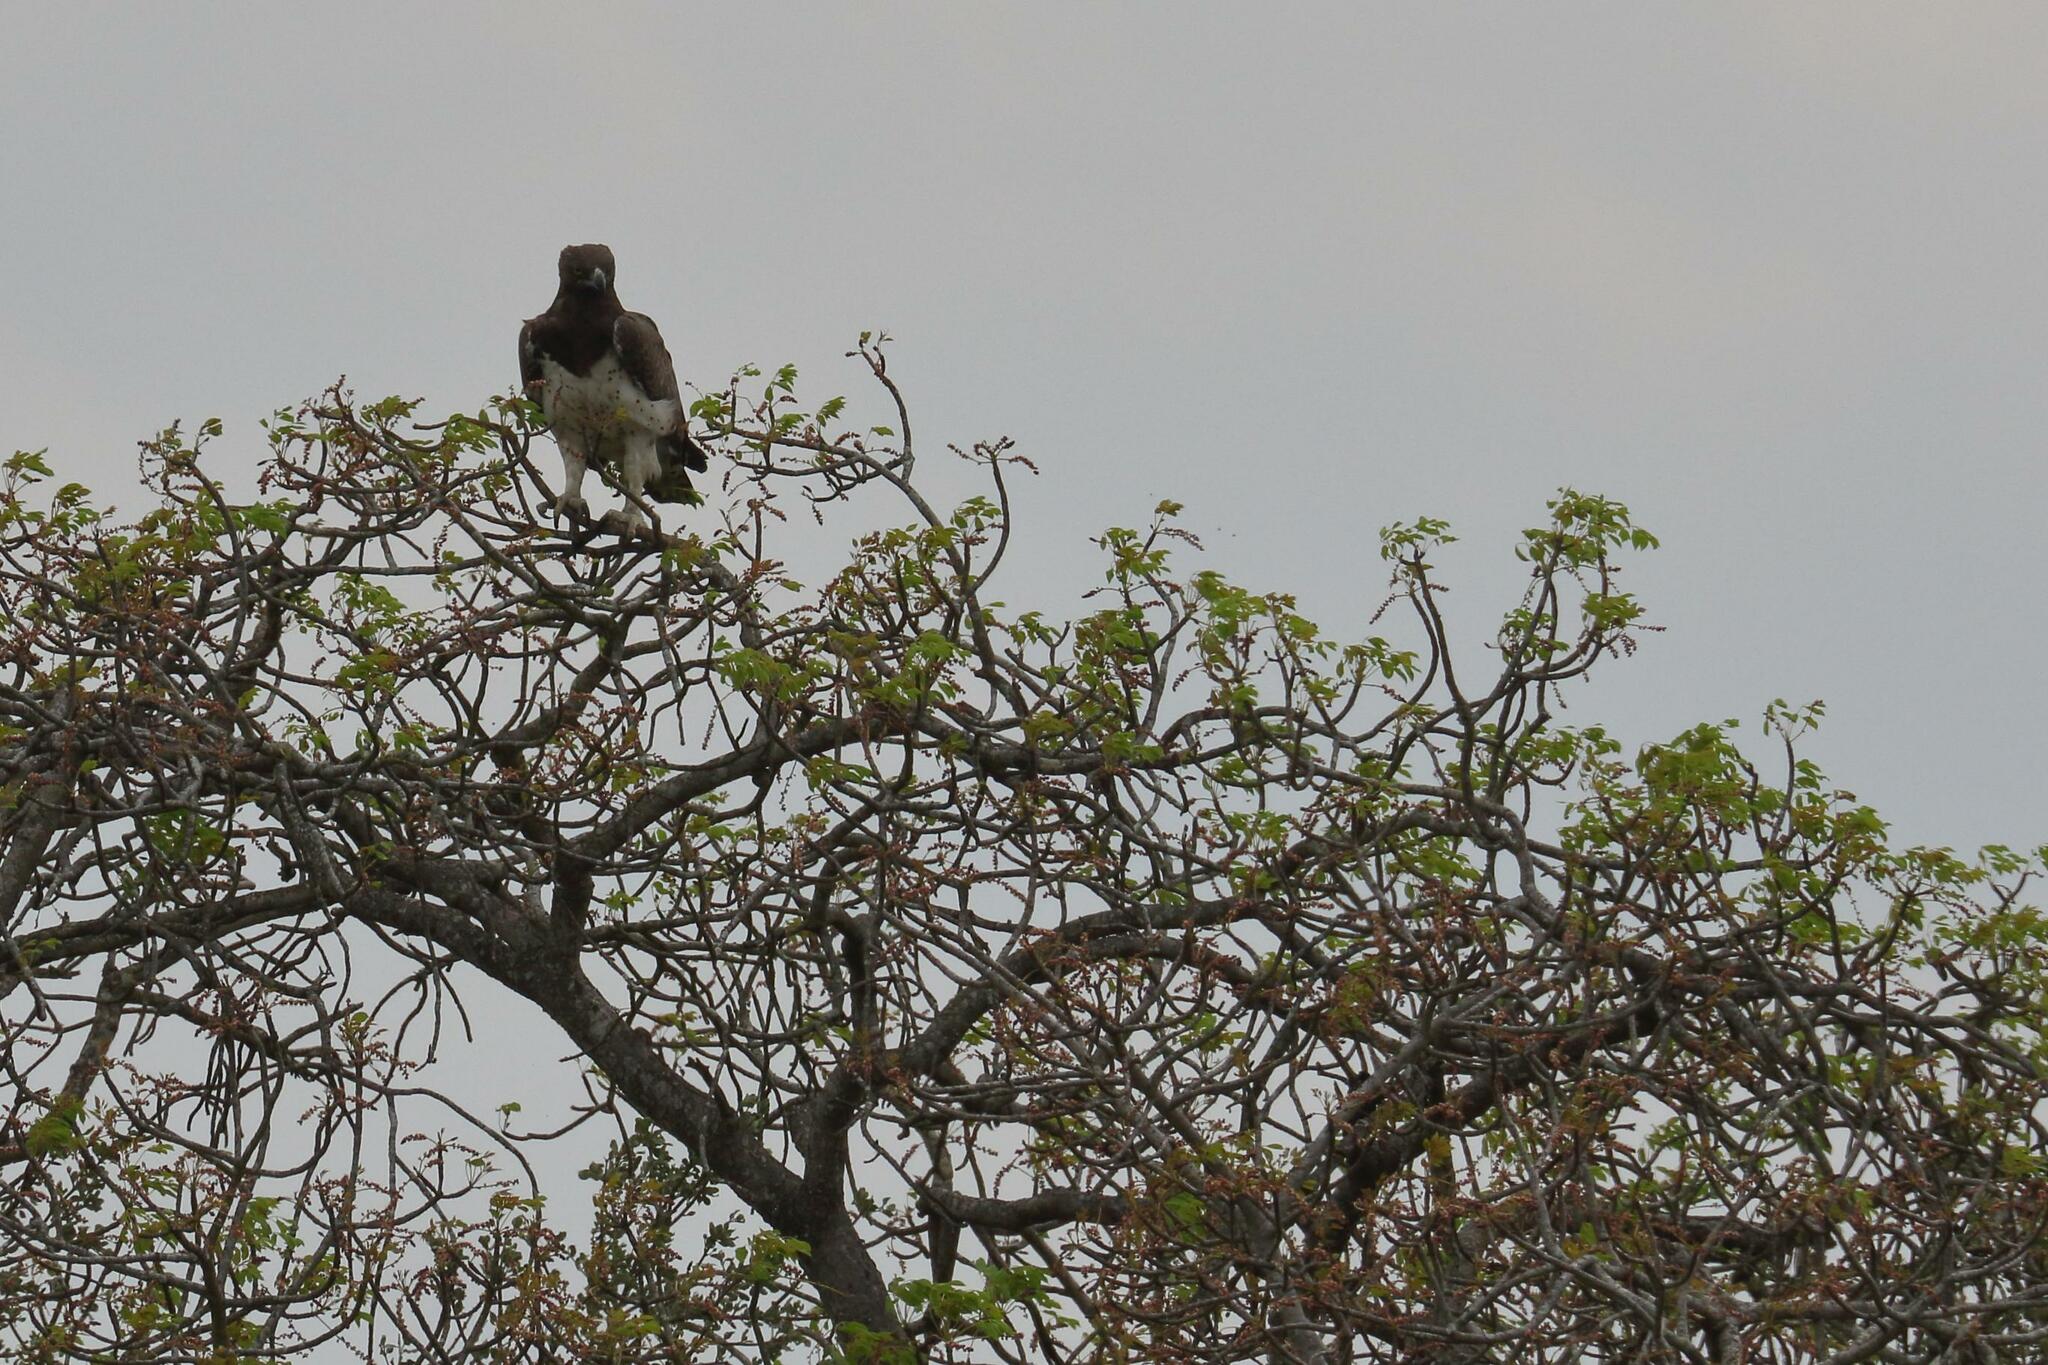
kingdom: Animalia
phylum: Chordata
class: Aves
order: Accipitriformes
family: Accipitridae
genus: Polemaetus
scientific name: Polemaetus bellicosus
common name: Martial eagle
